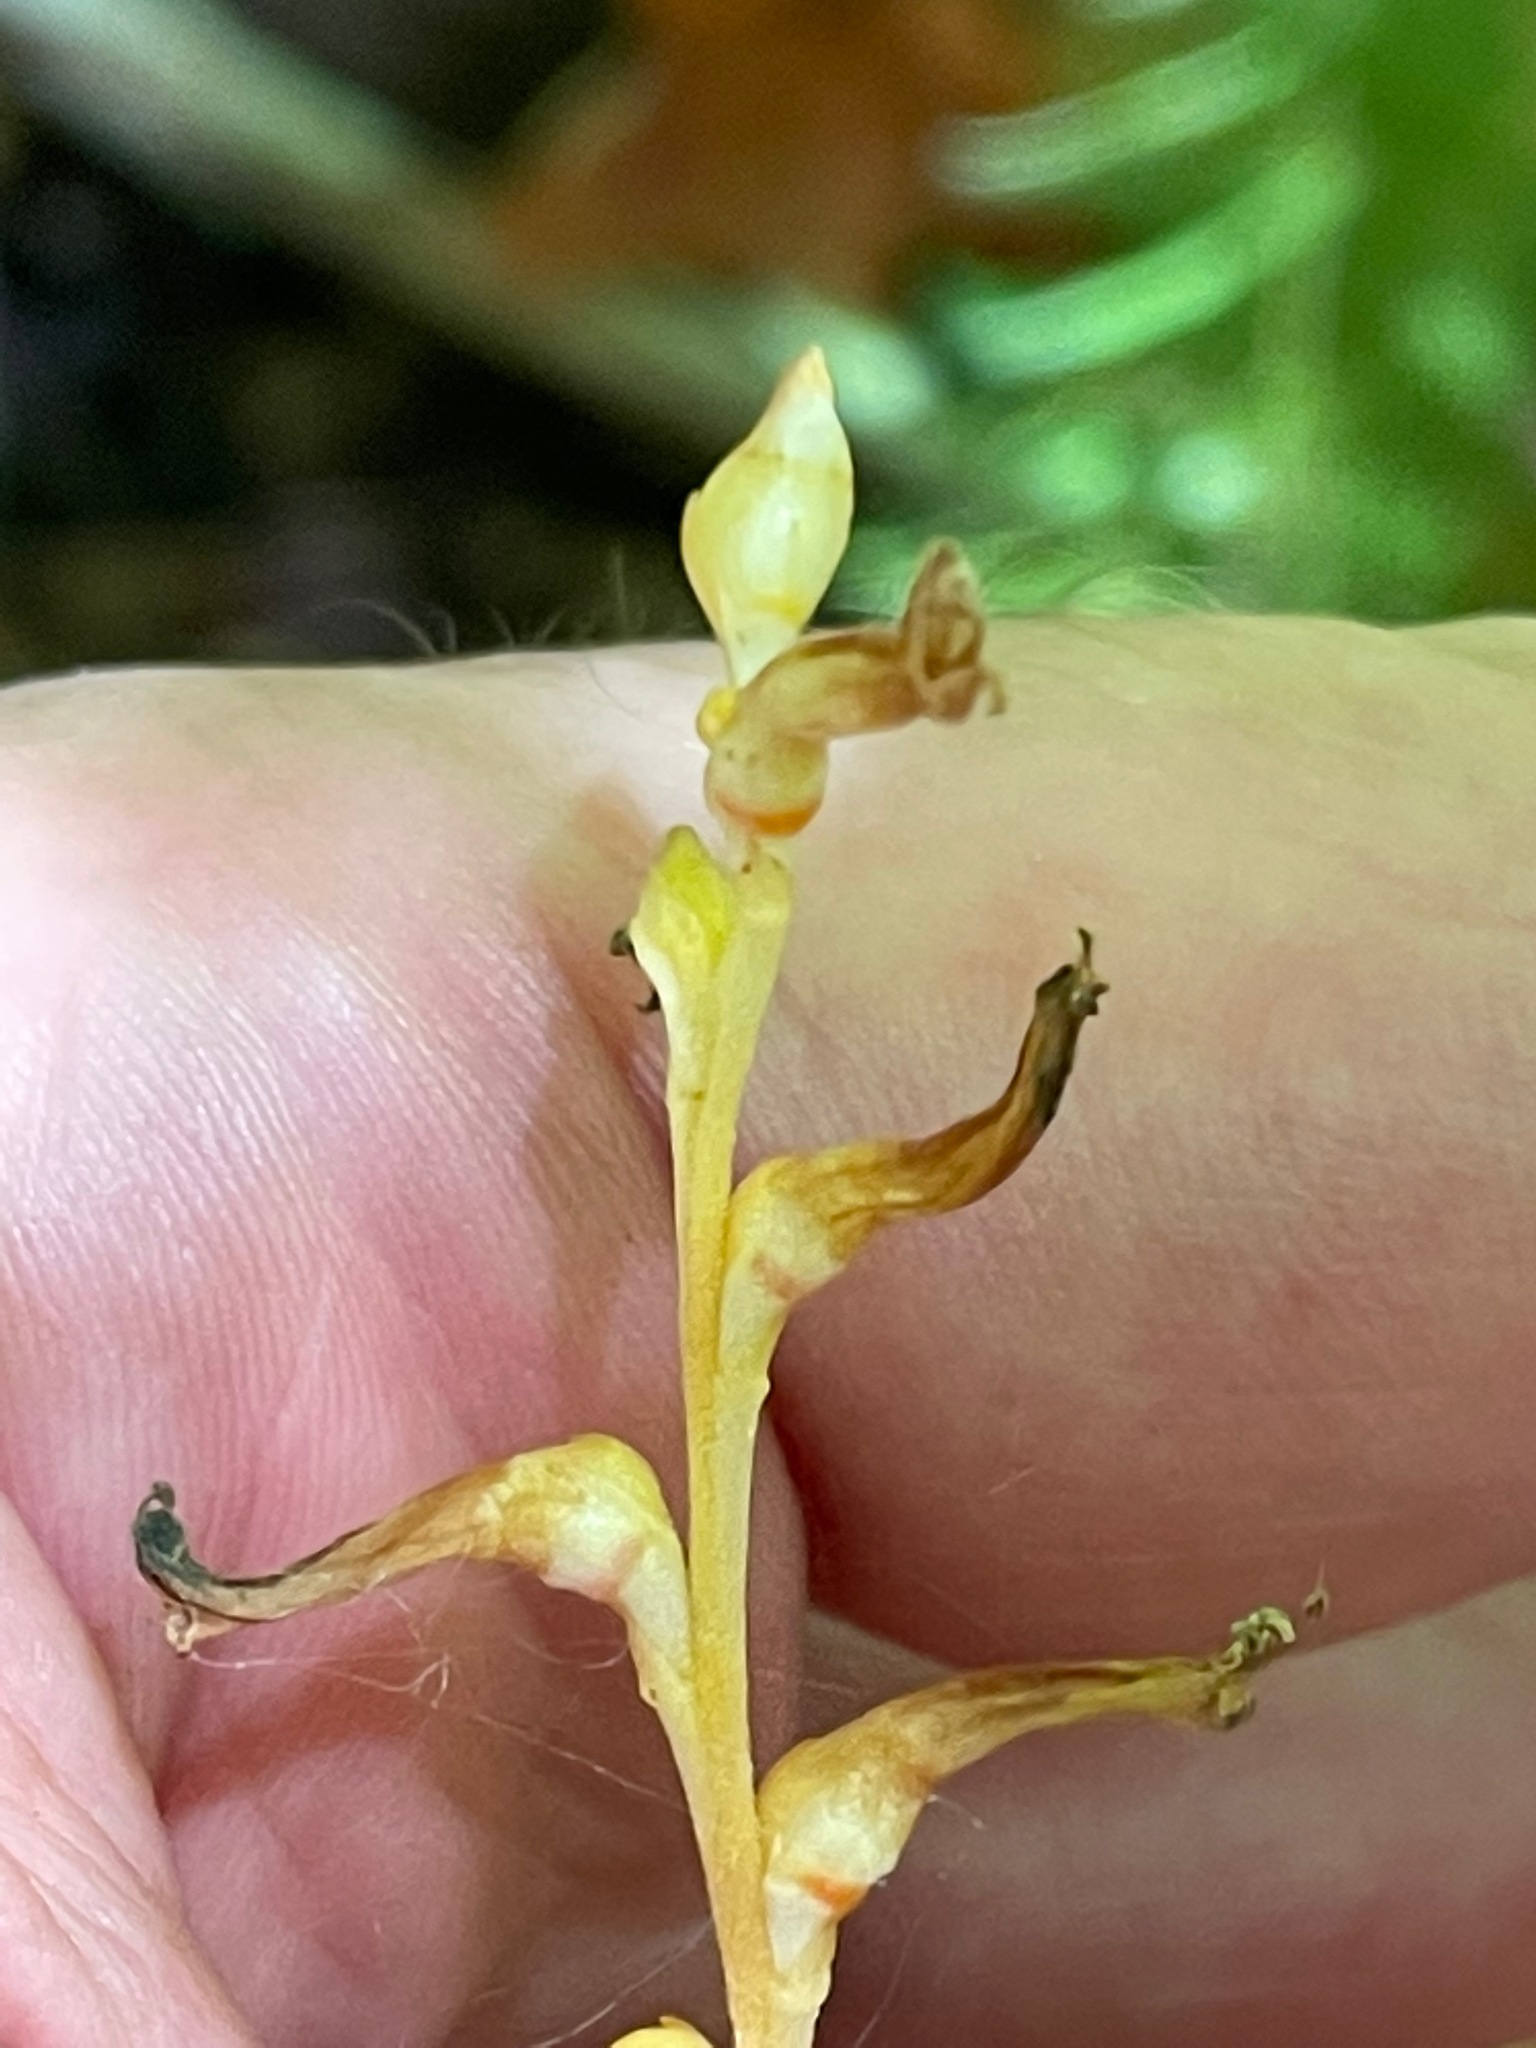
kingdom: Plantae
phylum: Tracheophyta
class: Magnoliopsida
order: Lamiales
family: Orobanchaceae
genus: Epifagus
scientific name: Epifagus virginiana
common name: Beechdrops
